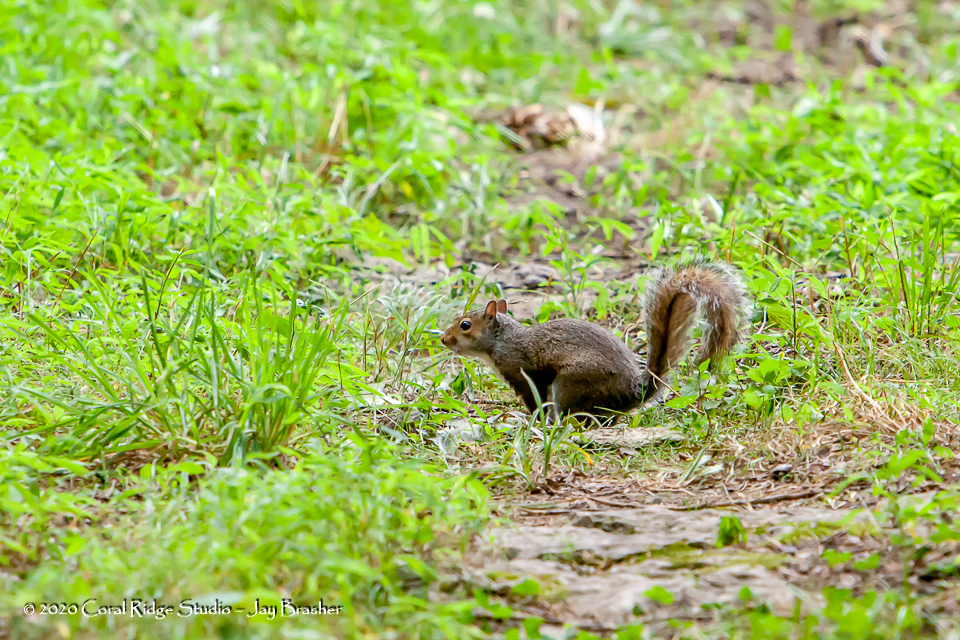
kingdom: Animalia
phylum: Chordata
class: Mammalia
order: Rodentia
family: Sciuridae
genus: Sciurus
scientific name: Sciurus carolinensis
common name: Eastern gray squirrel
